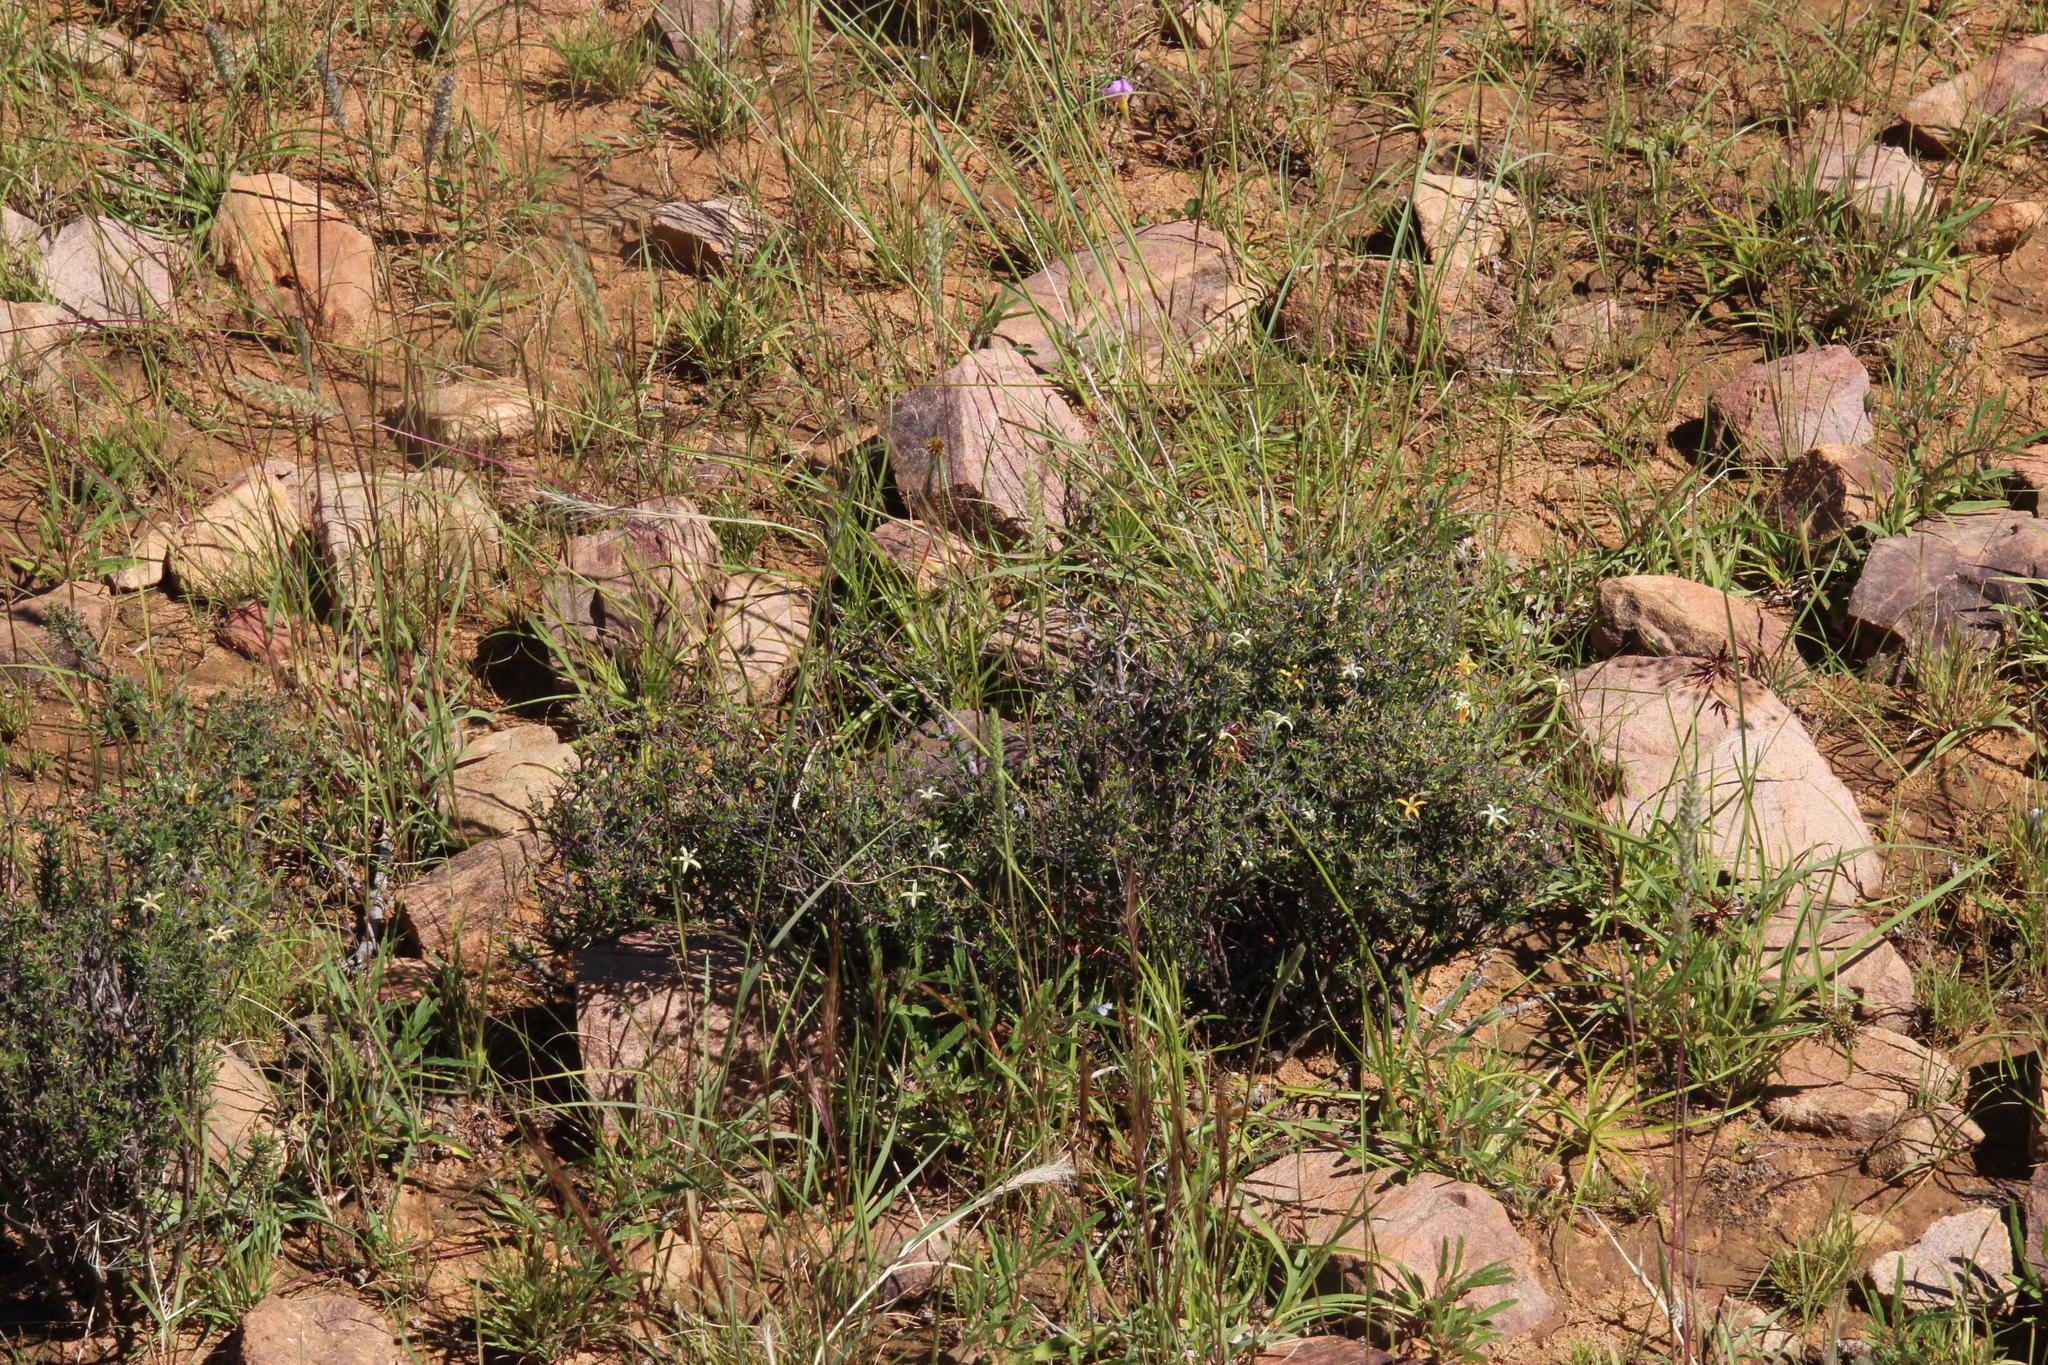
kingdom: Plantae
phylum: Tracheophyta
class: Magnoliopsida
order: Asterales
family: Campanulaceae
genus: Wahlenbergia
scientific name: Wahlenbergia albens
